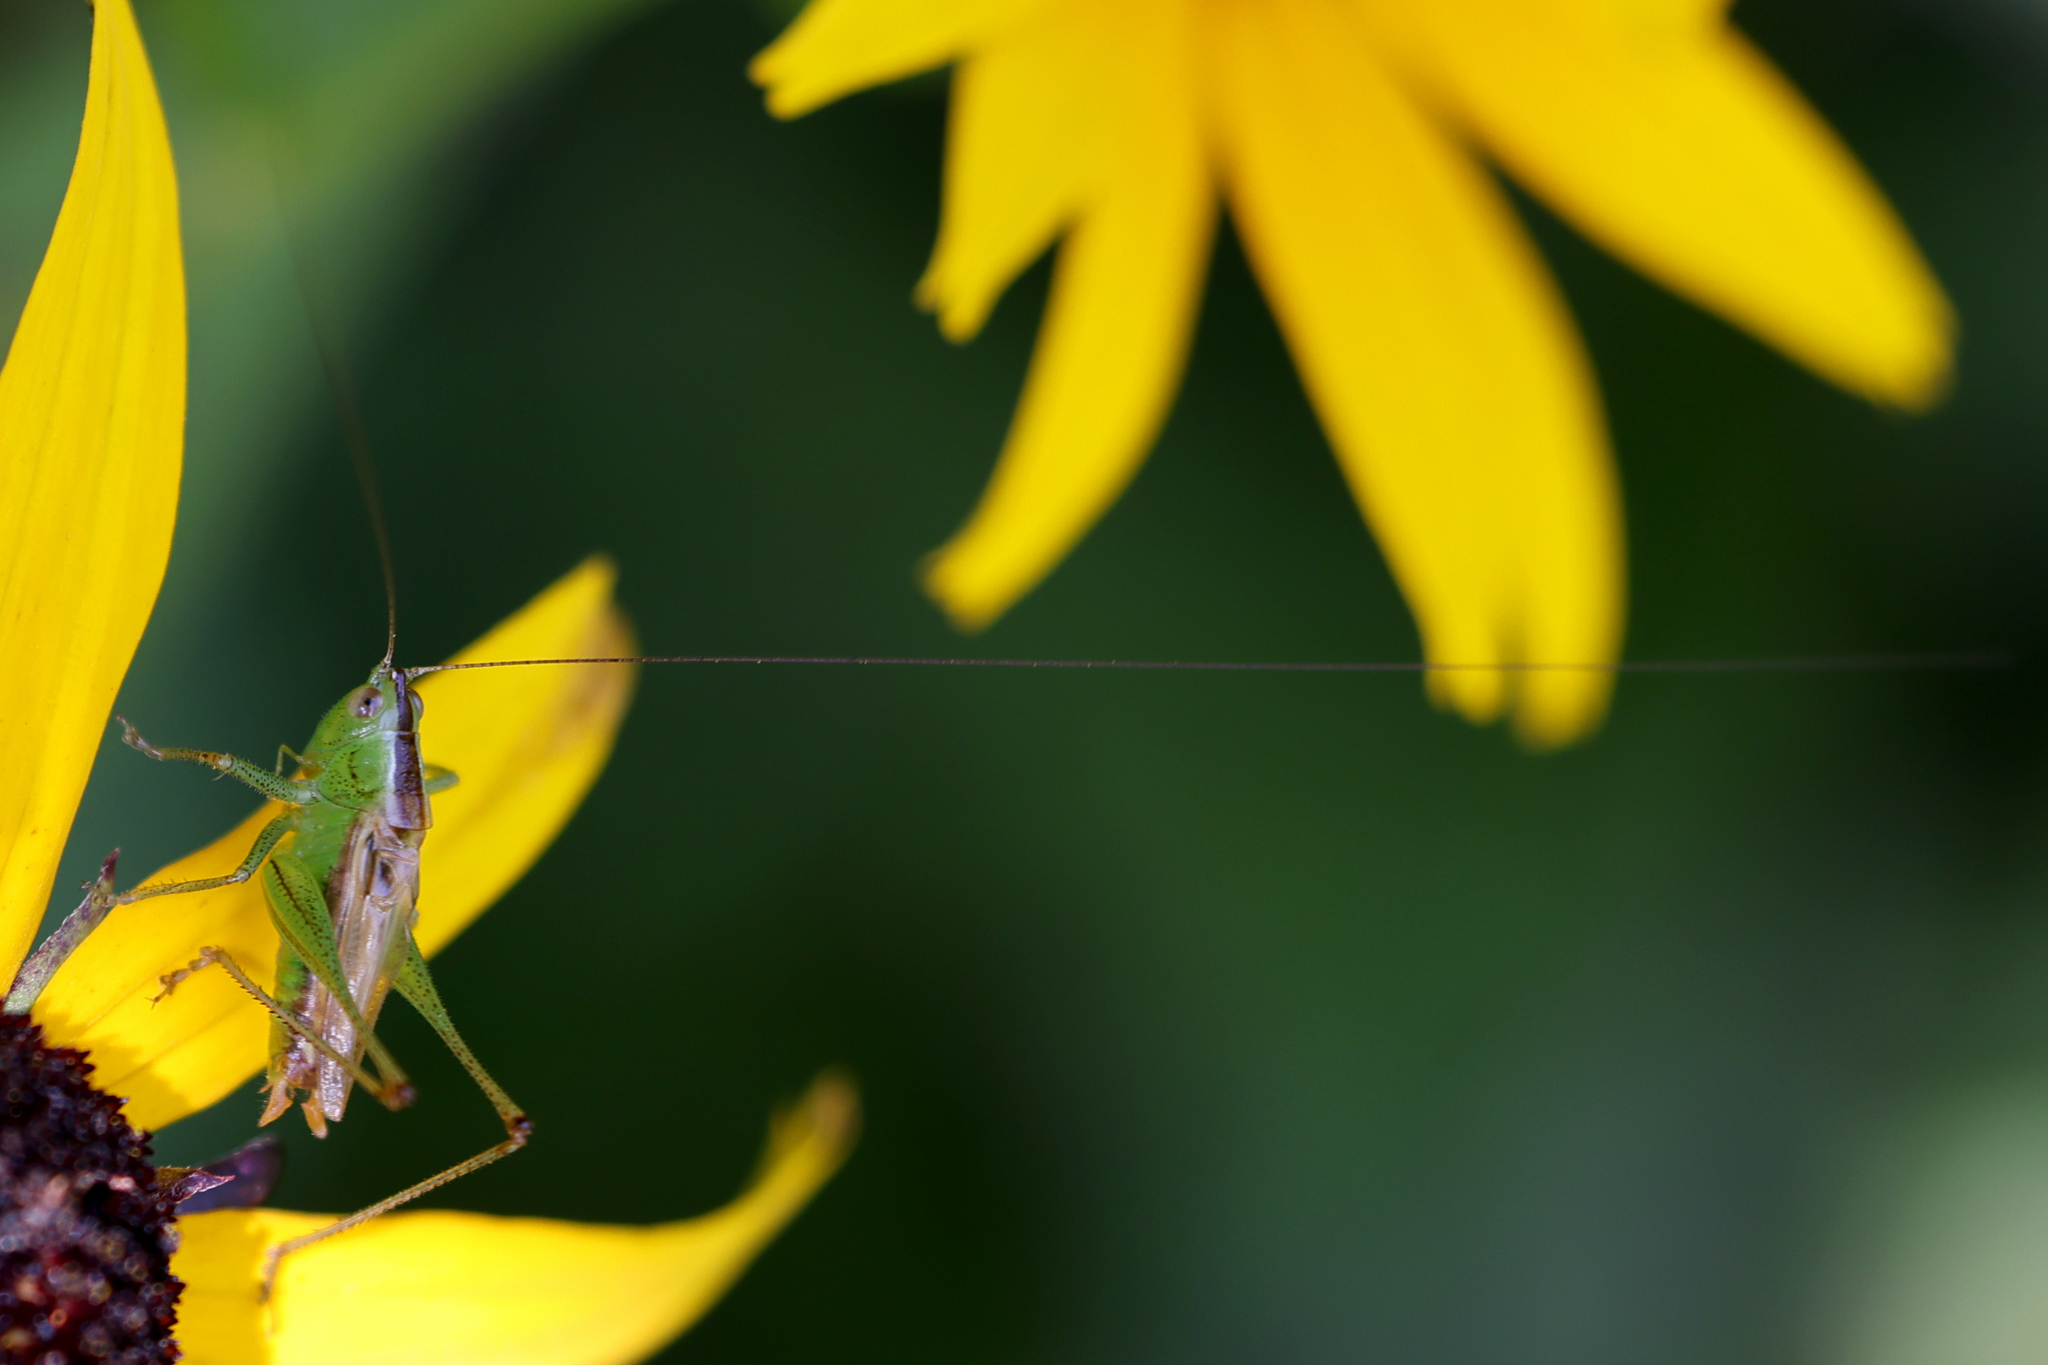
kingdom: Animalia
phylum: Arthropoda
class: Insecta
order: Orthoptera
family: Tettigoniidae
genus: Conocephalus
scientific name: Conocephalus brevipennis
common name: Short-winged meadow katydid
